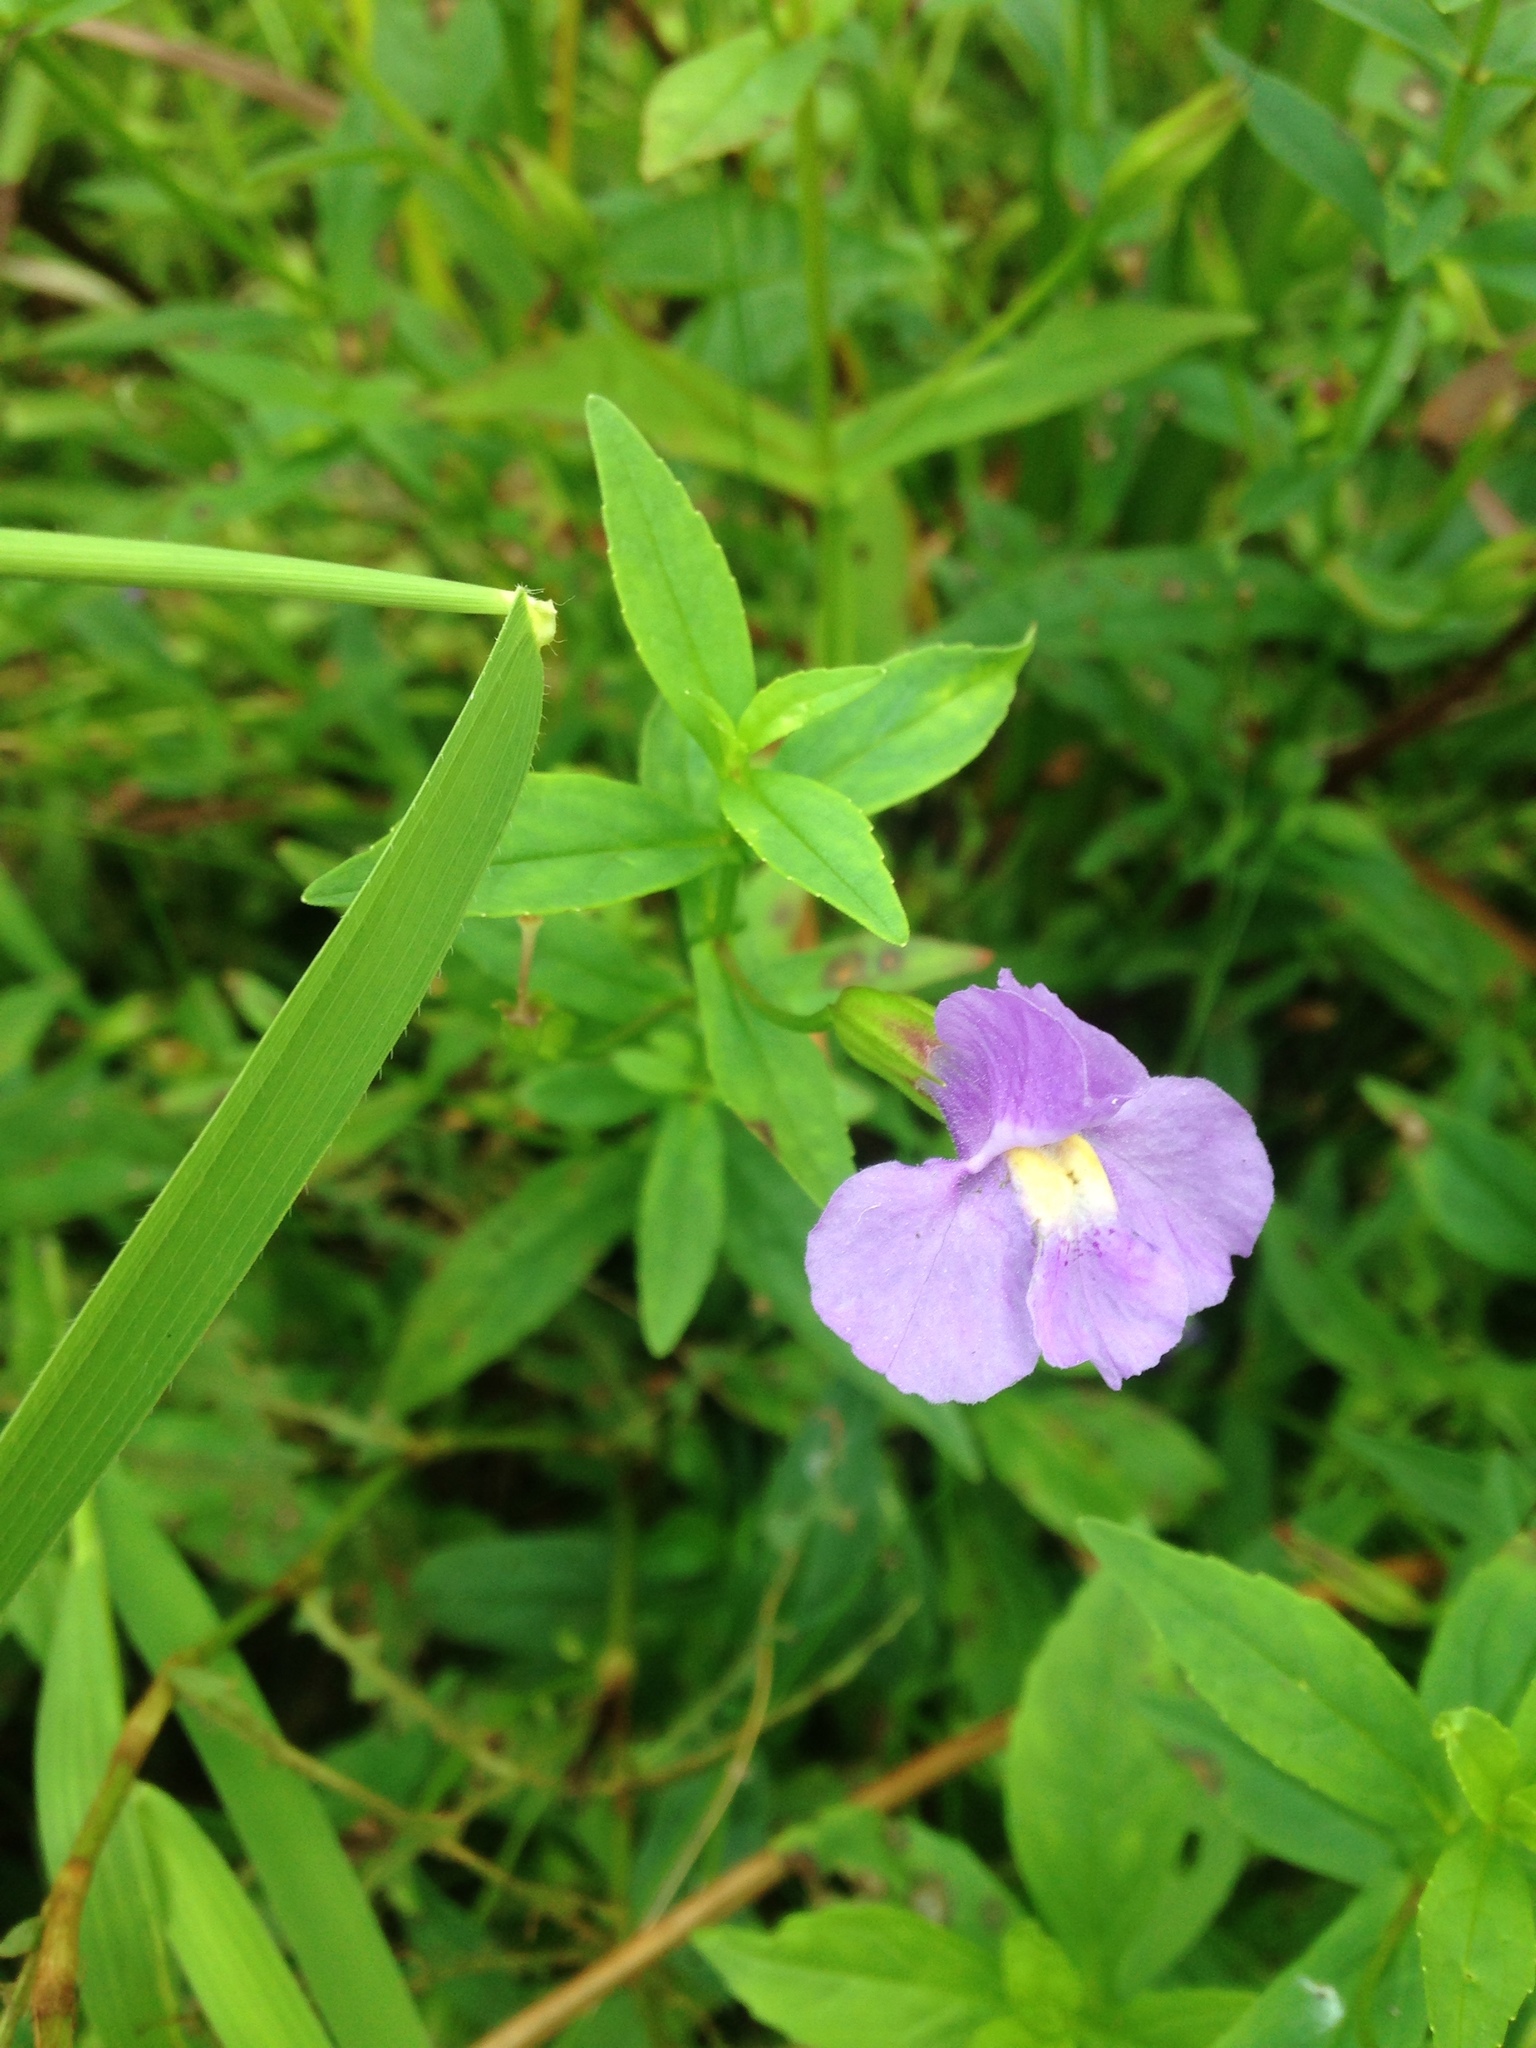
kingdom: Plantae
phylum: Tracheophyta
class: Magnoliopsida
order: Lamiales
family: Phrymaceae
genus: Mimulus
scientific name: Mimulus ringens
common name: Allegheny monkeyflower
